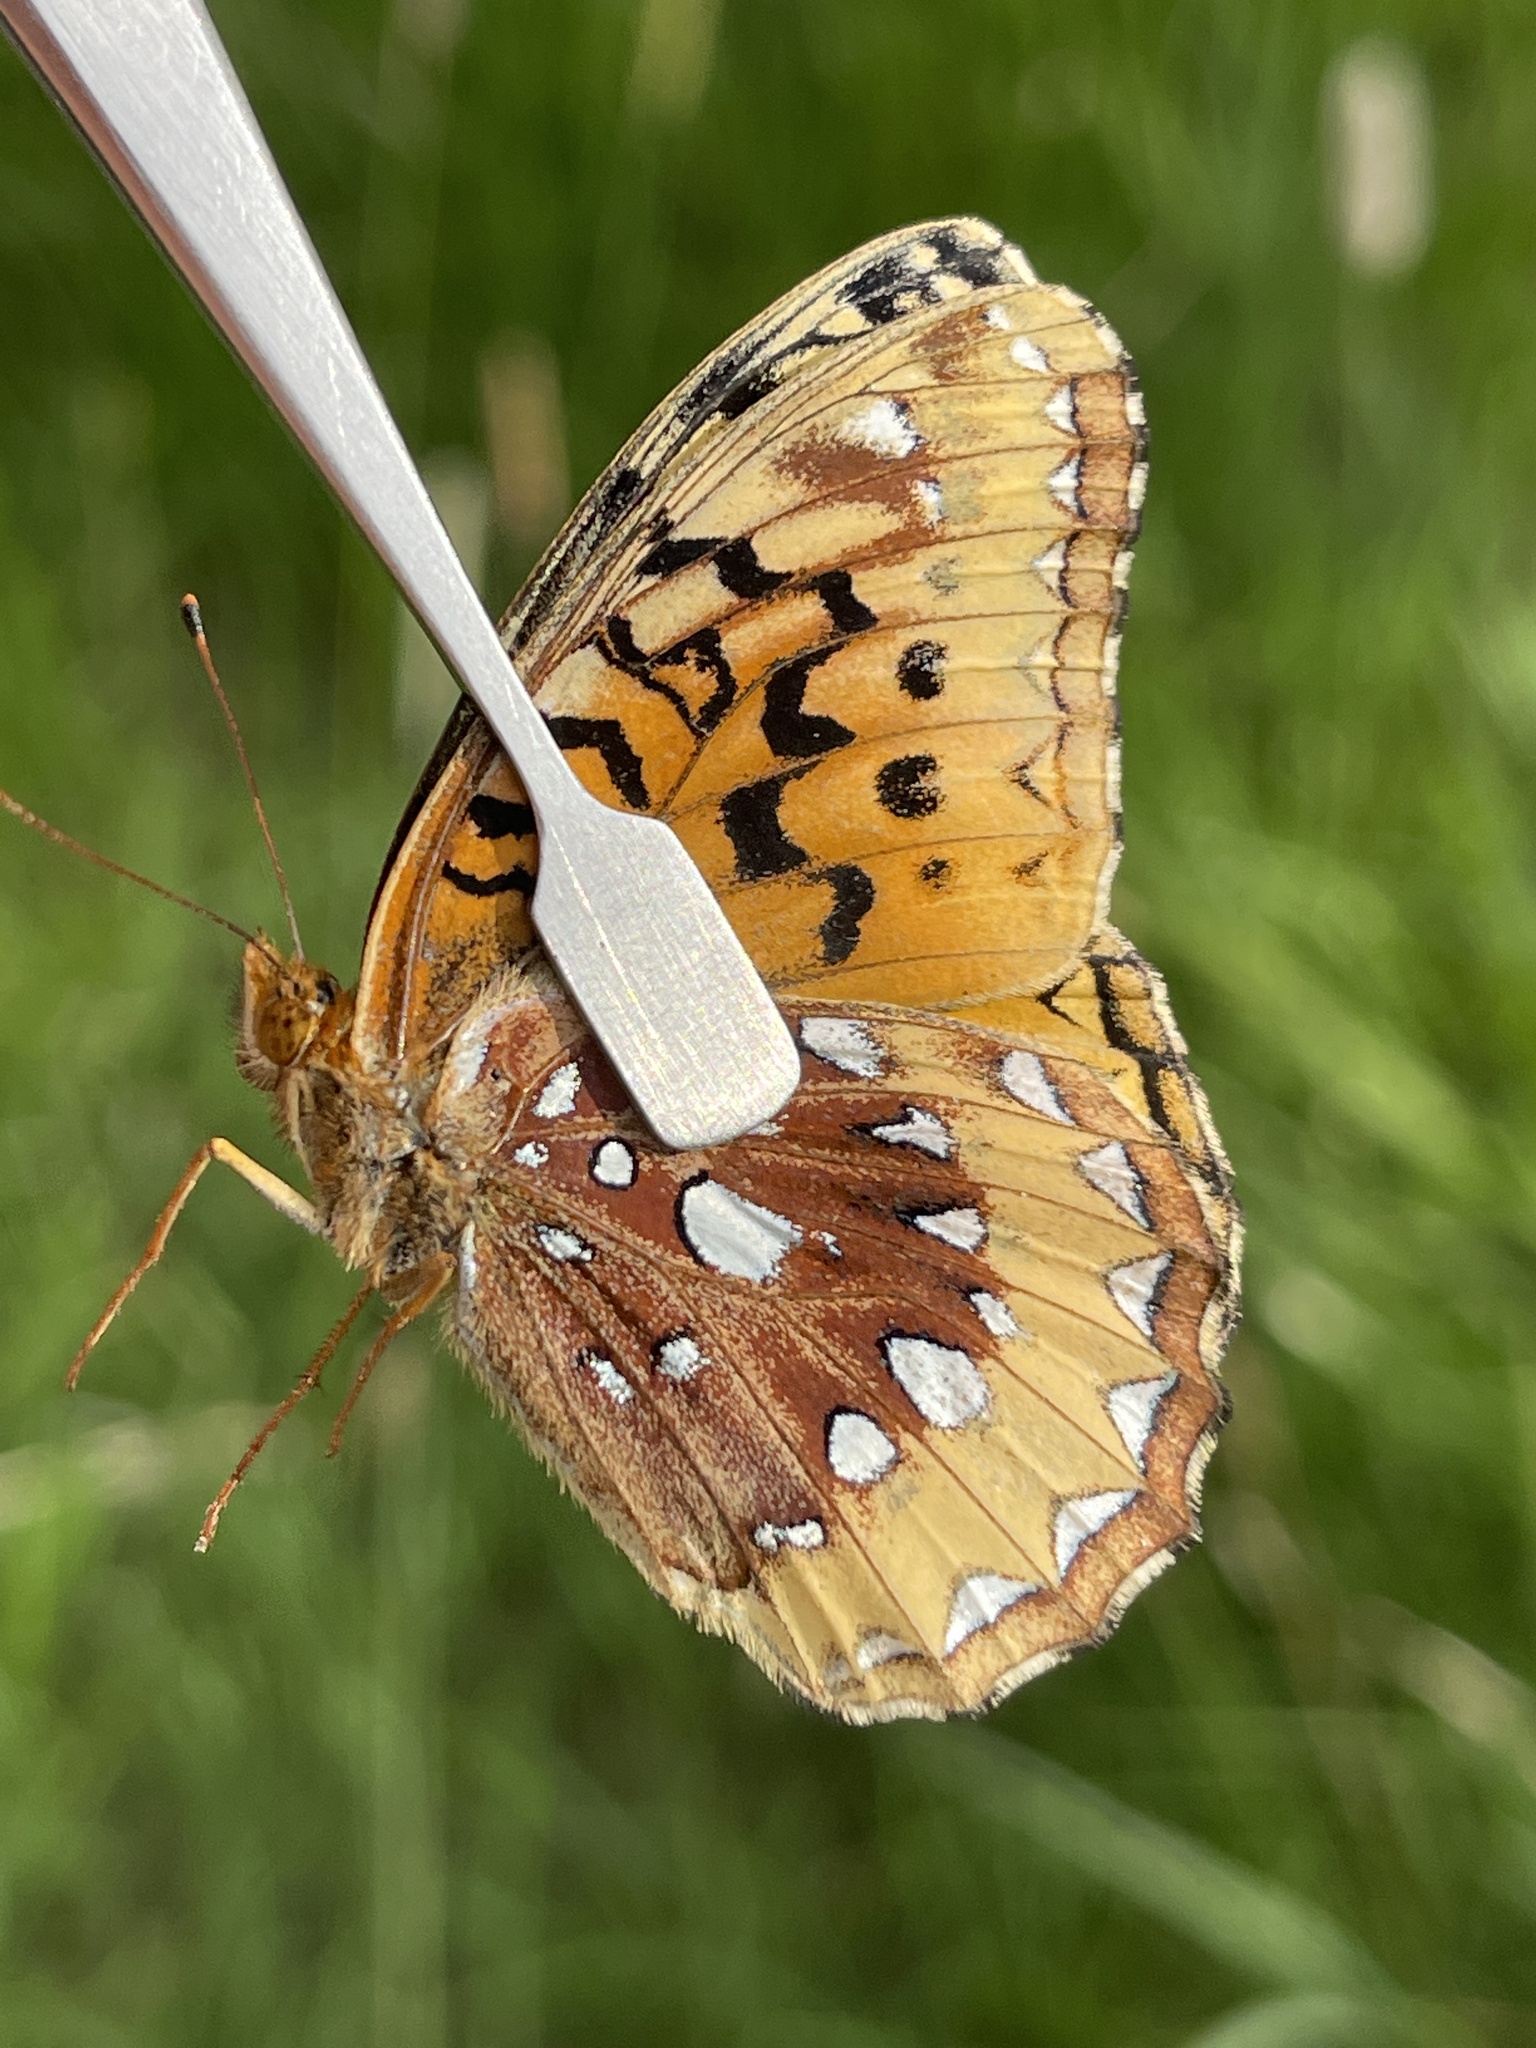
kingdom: Animalia
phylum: Arthropoda
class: Insecta
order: Lepidoptera
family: Nymphalidae
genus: Speyeria
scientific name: Speyeria cybele
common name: Great spangled fritillary
